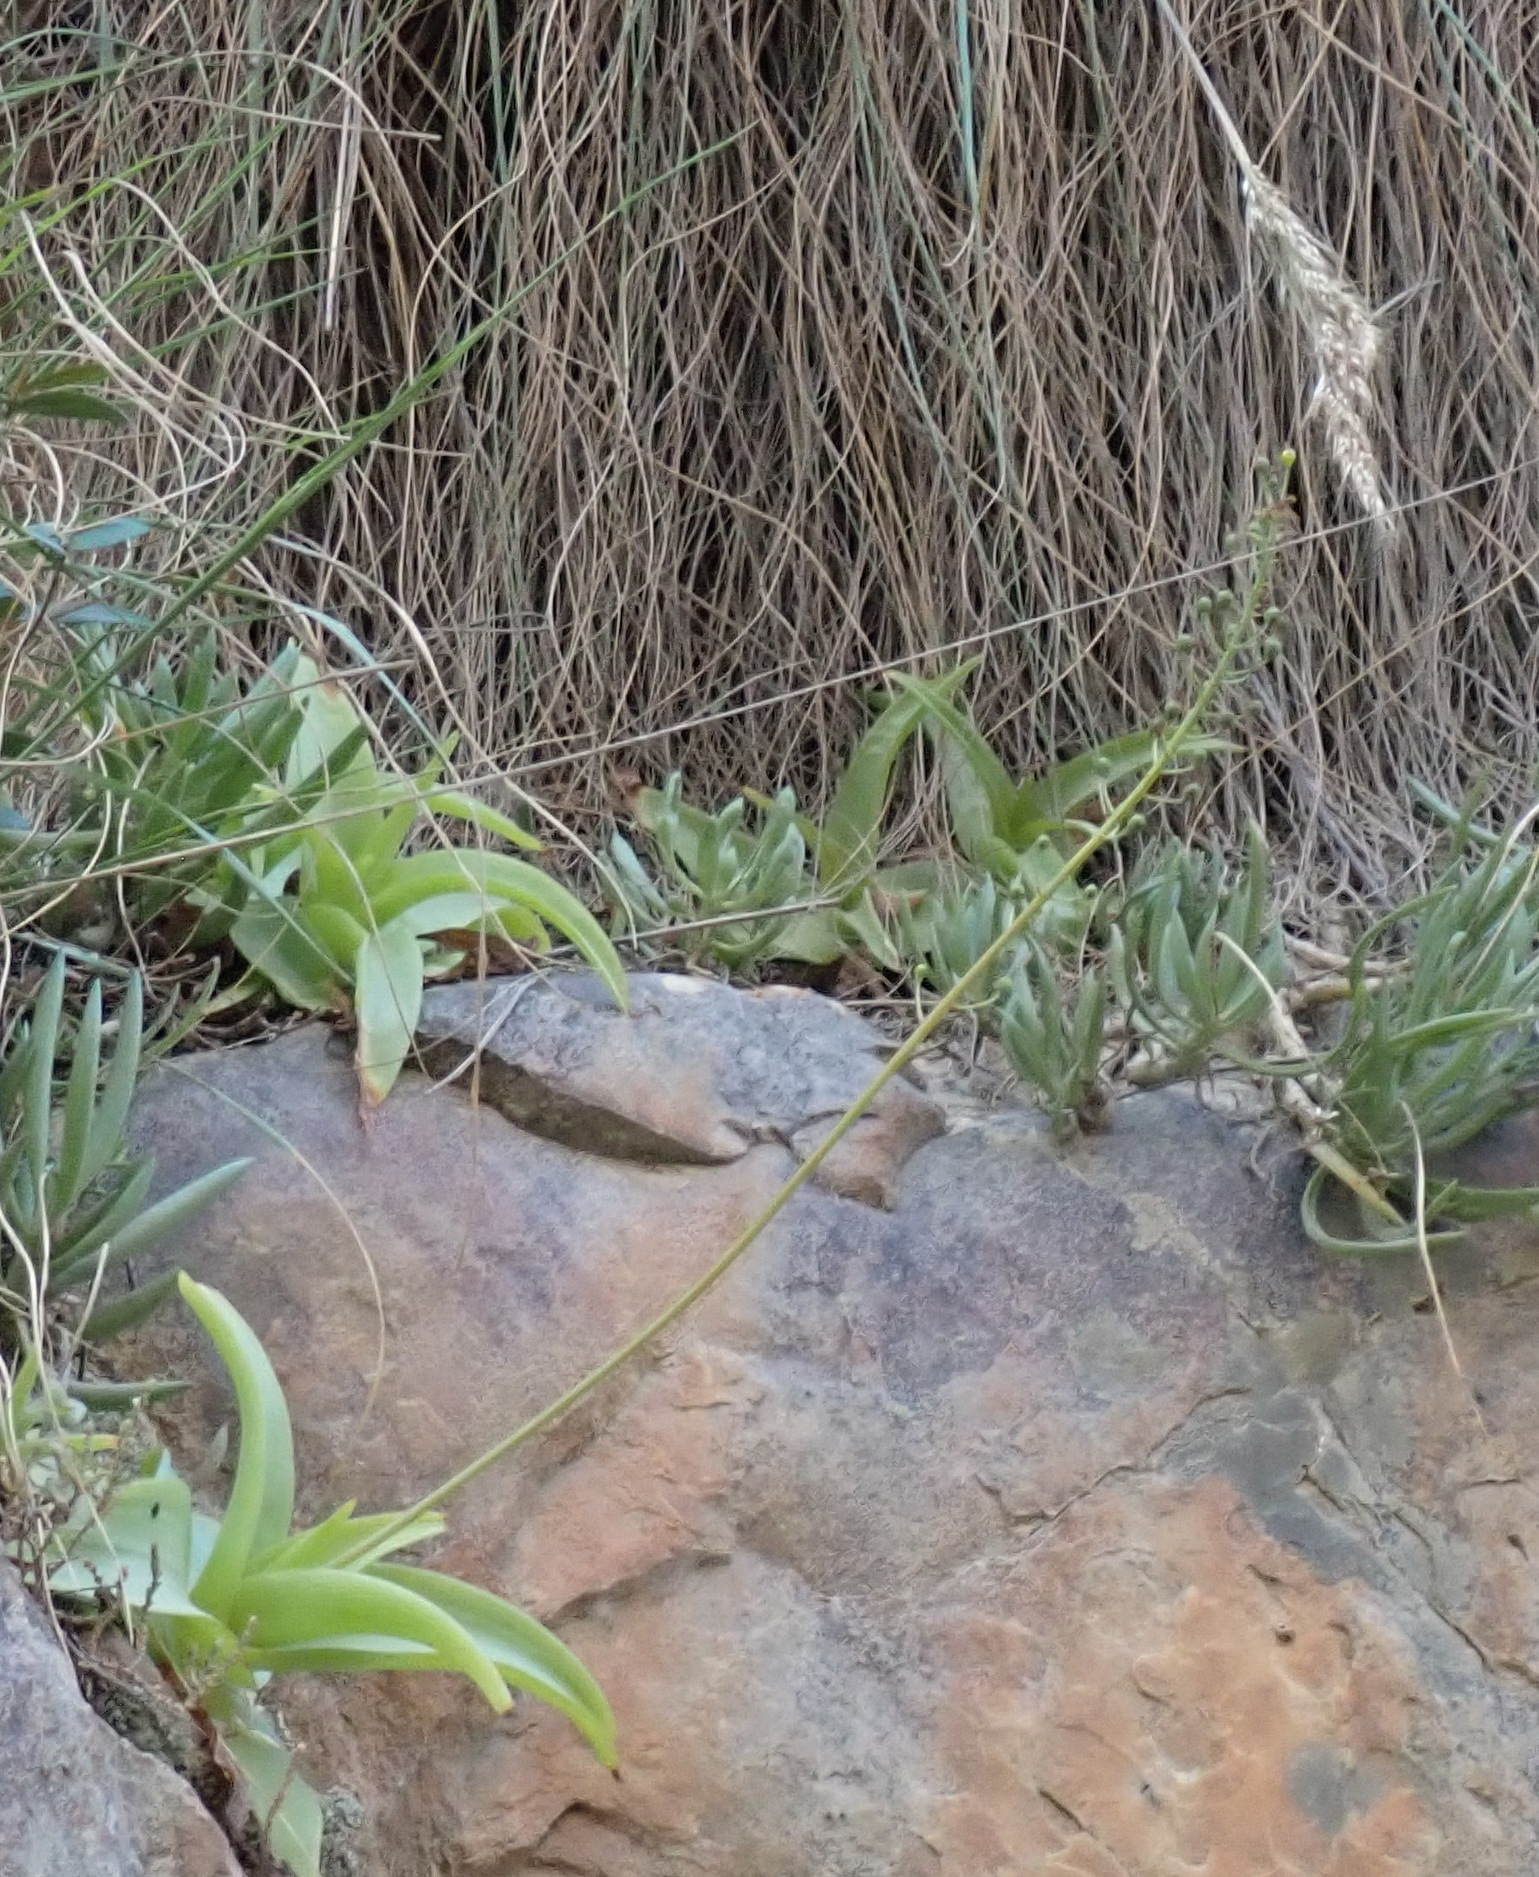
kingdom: Plantae
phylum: Tracheophyta
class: Liliopsida
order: Asparagales
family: Asphodelaceae
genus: Bulbine
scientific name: Bulbine latifolia
